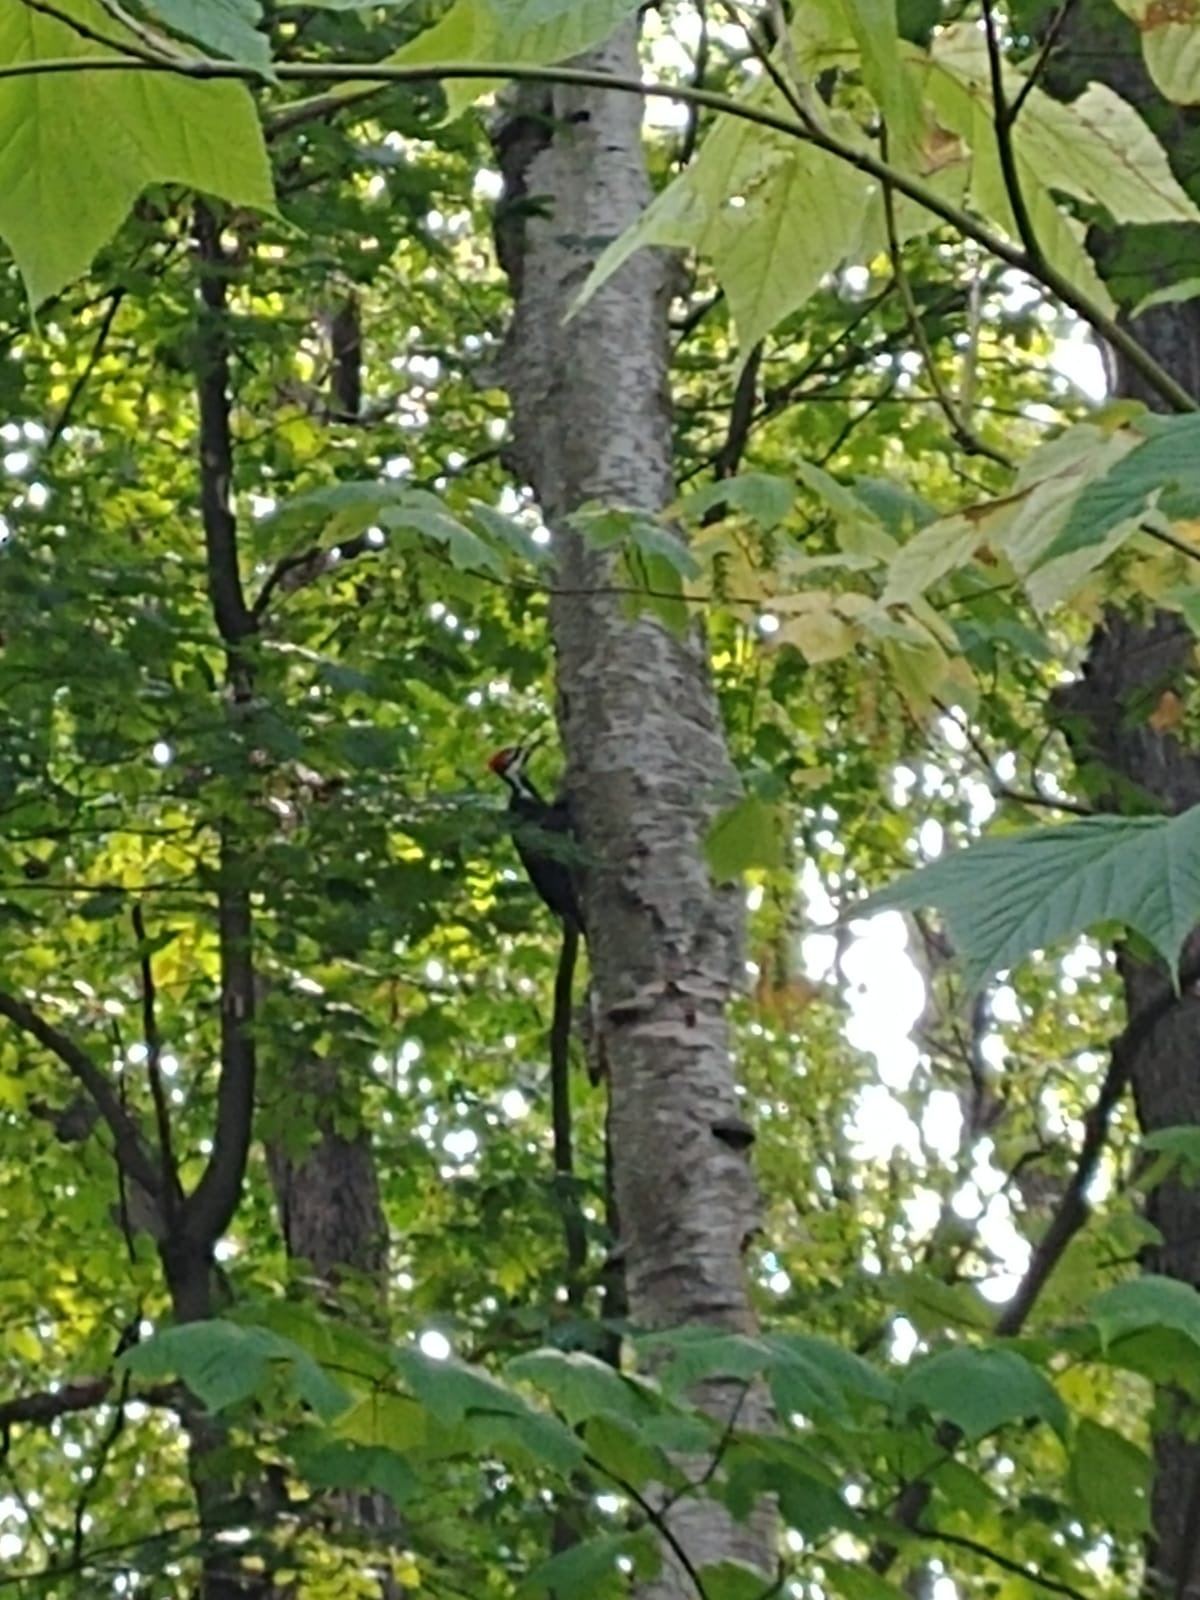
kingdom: Animalia
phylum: Chordata
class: Aves
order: Piciformes
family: Picidae
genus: Dryocopus
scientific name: Dryocopus pileatus
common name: Pileated woodpecker
